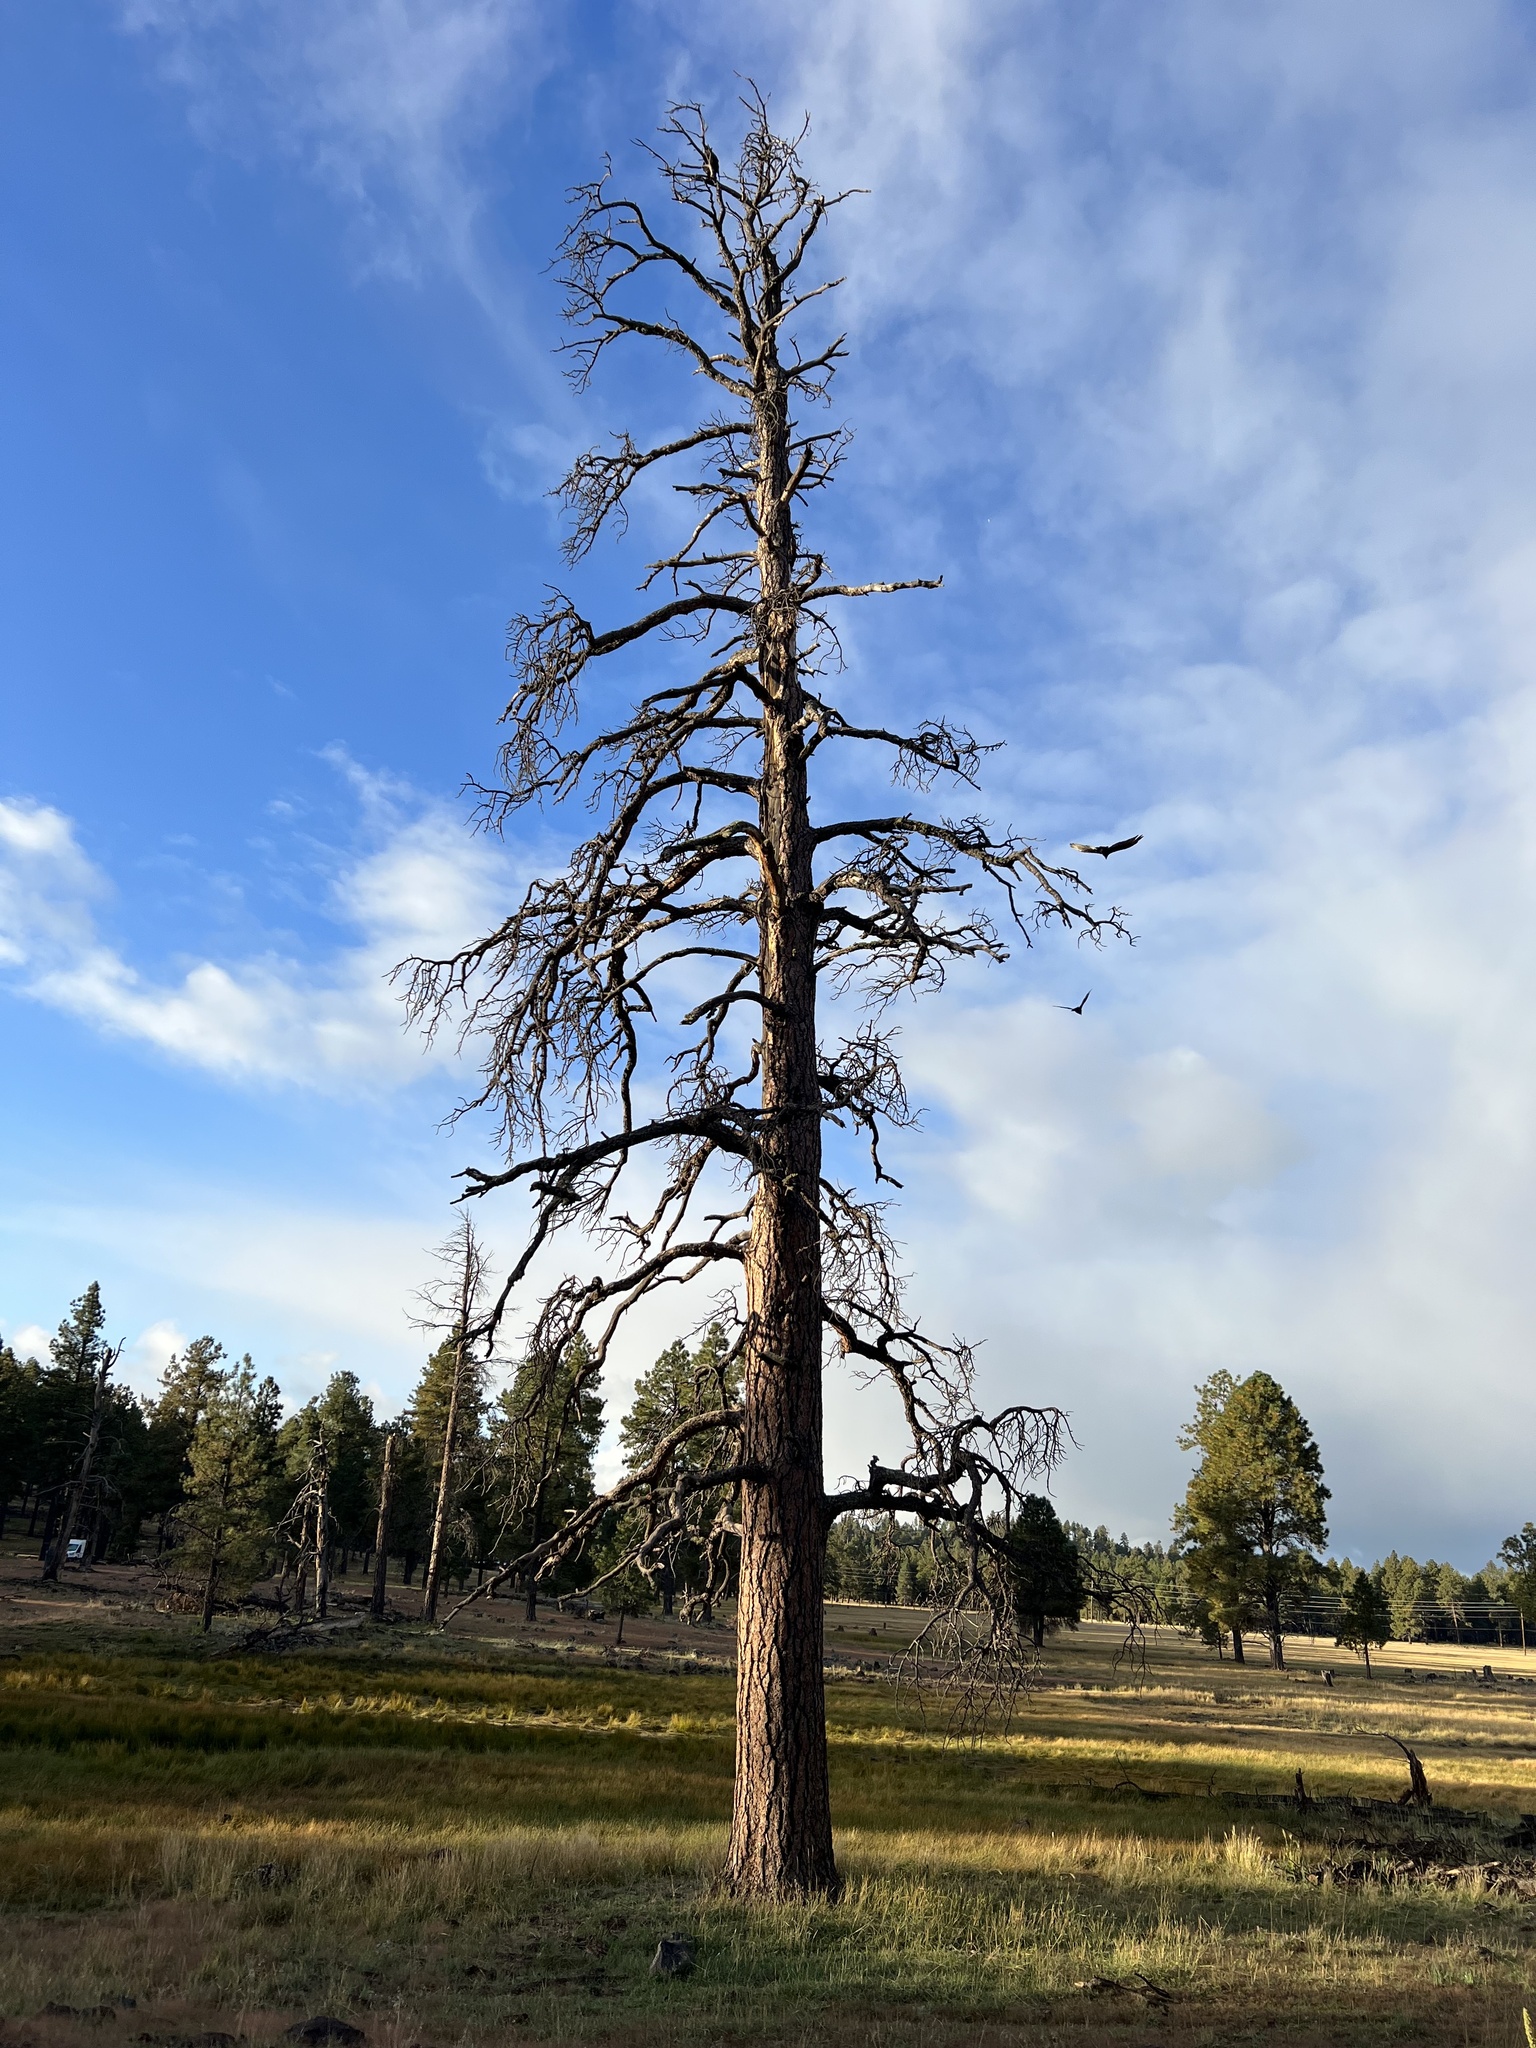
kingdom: Plantae
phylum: Tracheophyta
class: Pinopsida
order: Pinales
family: Pinaceae
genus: Pinus
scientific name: Pinus ponderosa
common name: Western yellow-pine
